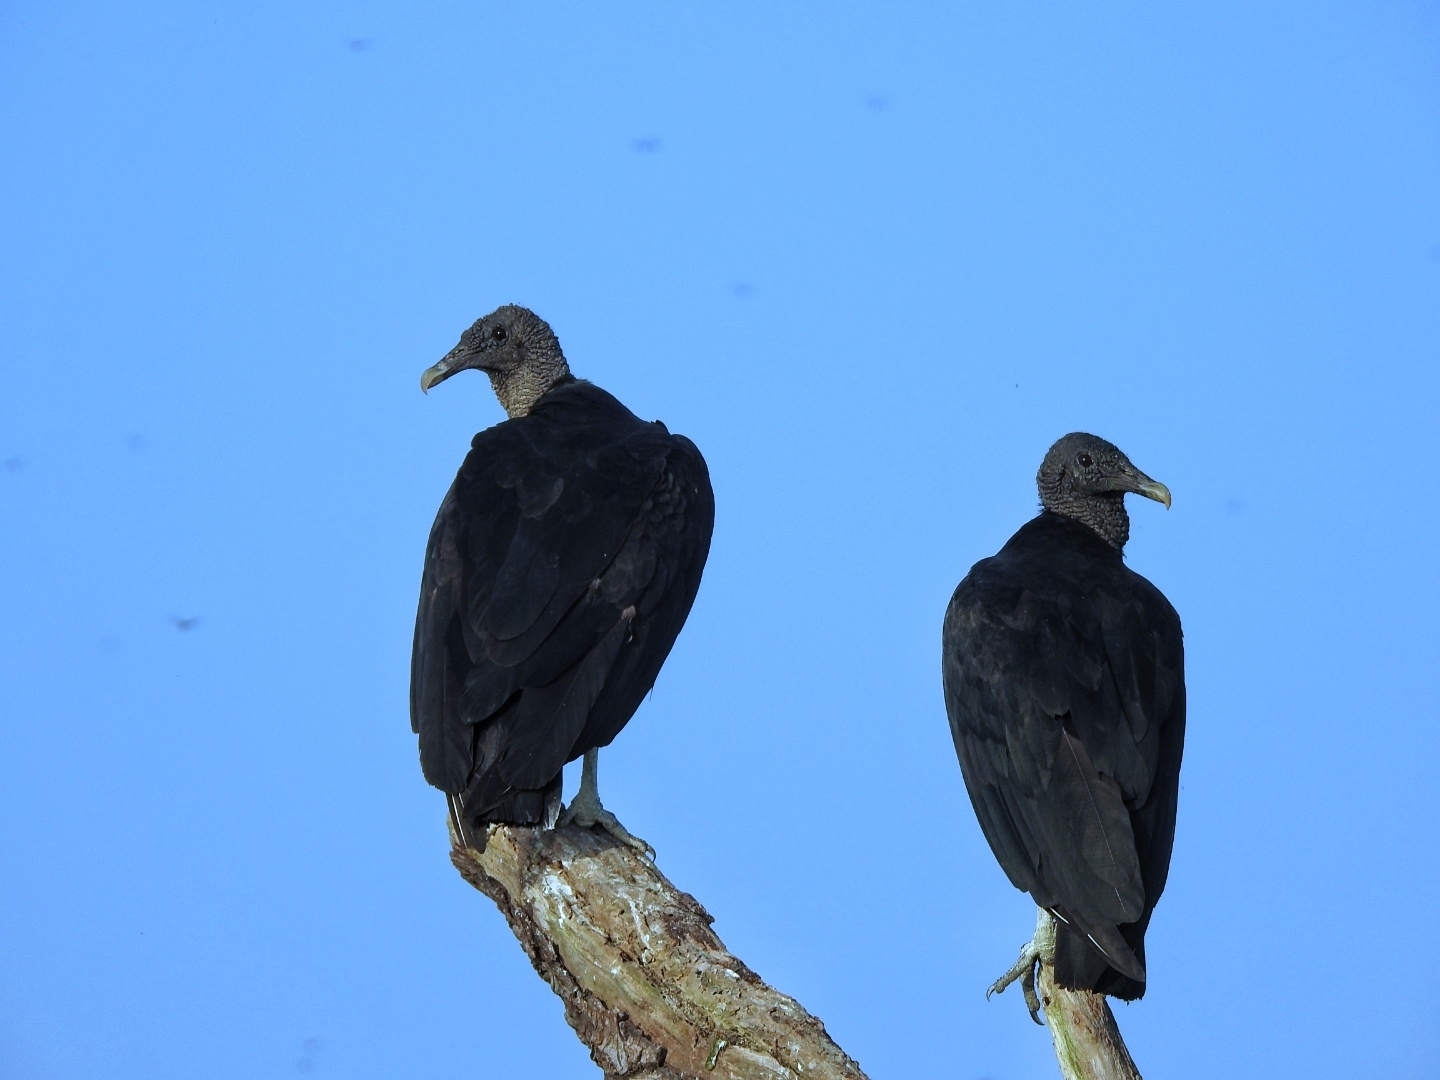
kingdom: Animalia
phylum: Chordata
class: Aves
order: Accipitriformes
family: Cathartidae
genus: Coragyps
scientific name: Coragyps atratus
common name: Black vulture
